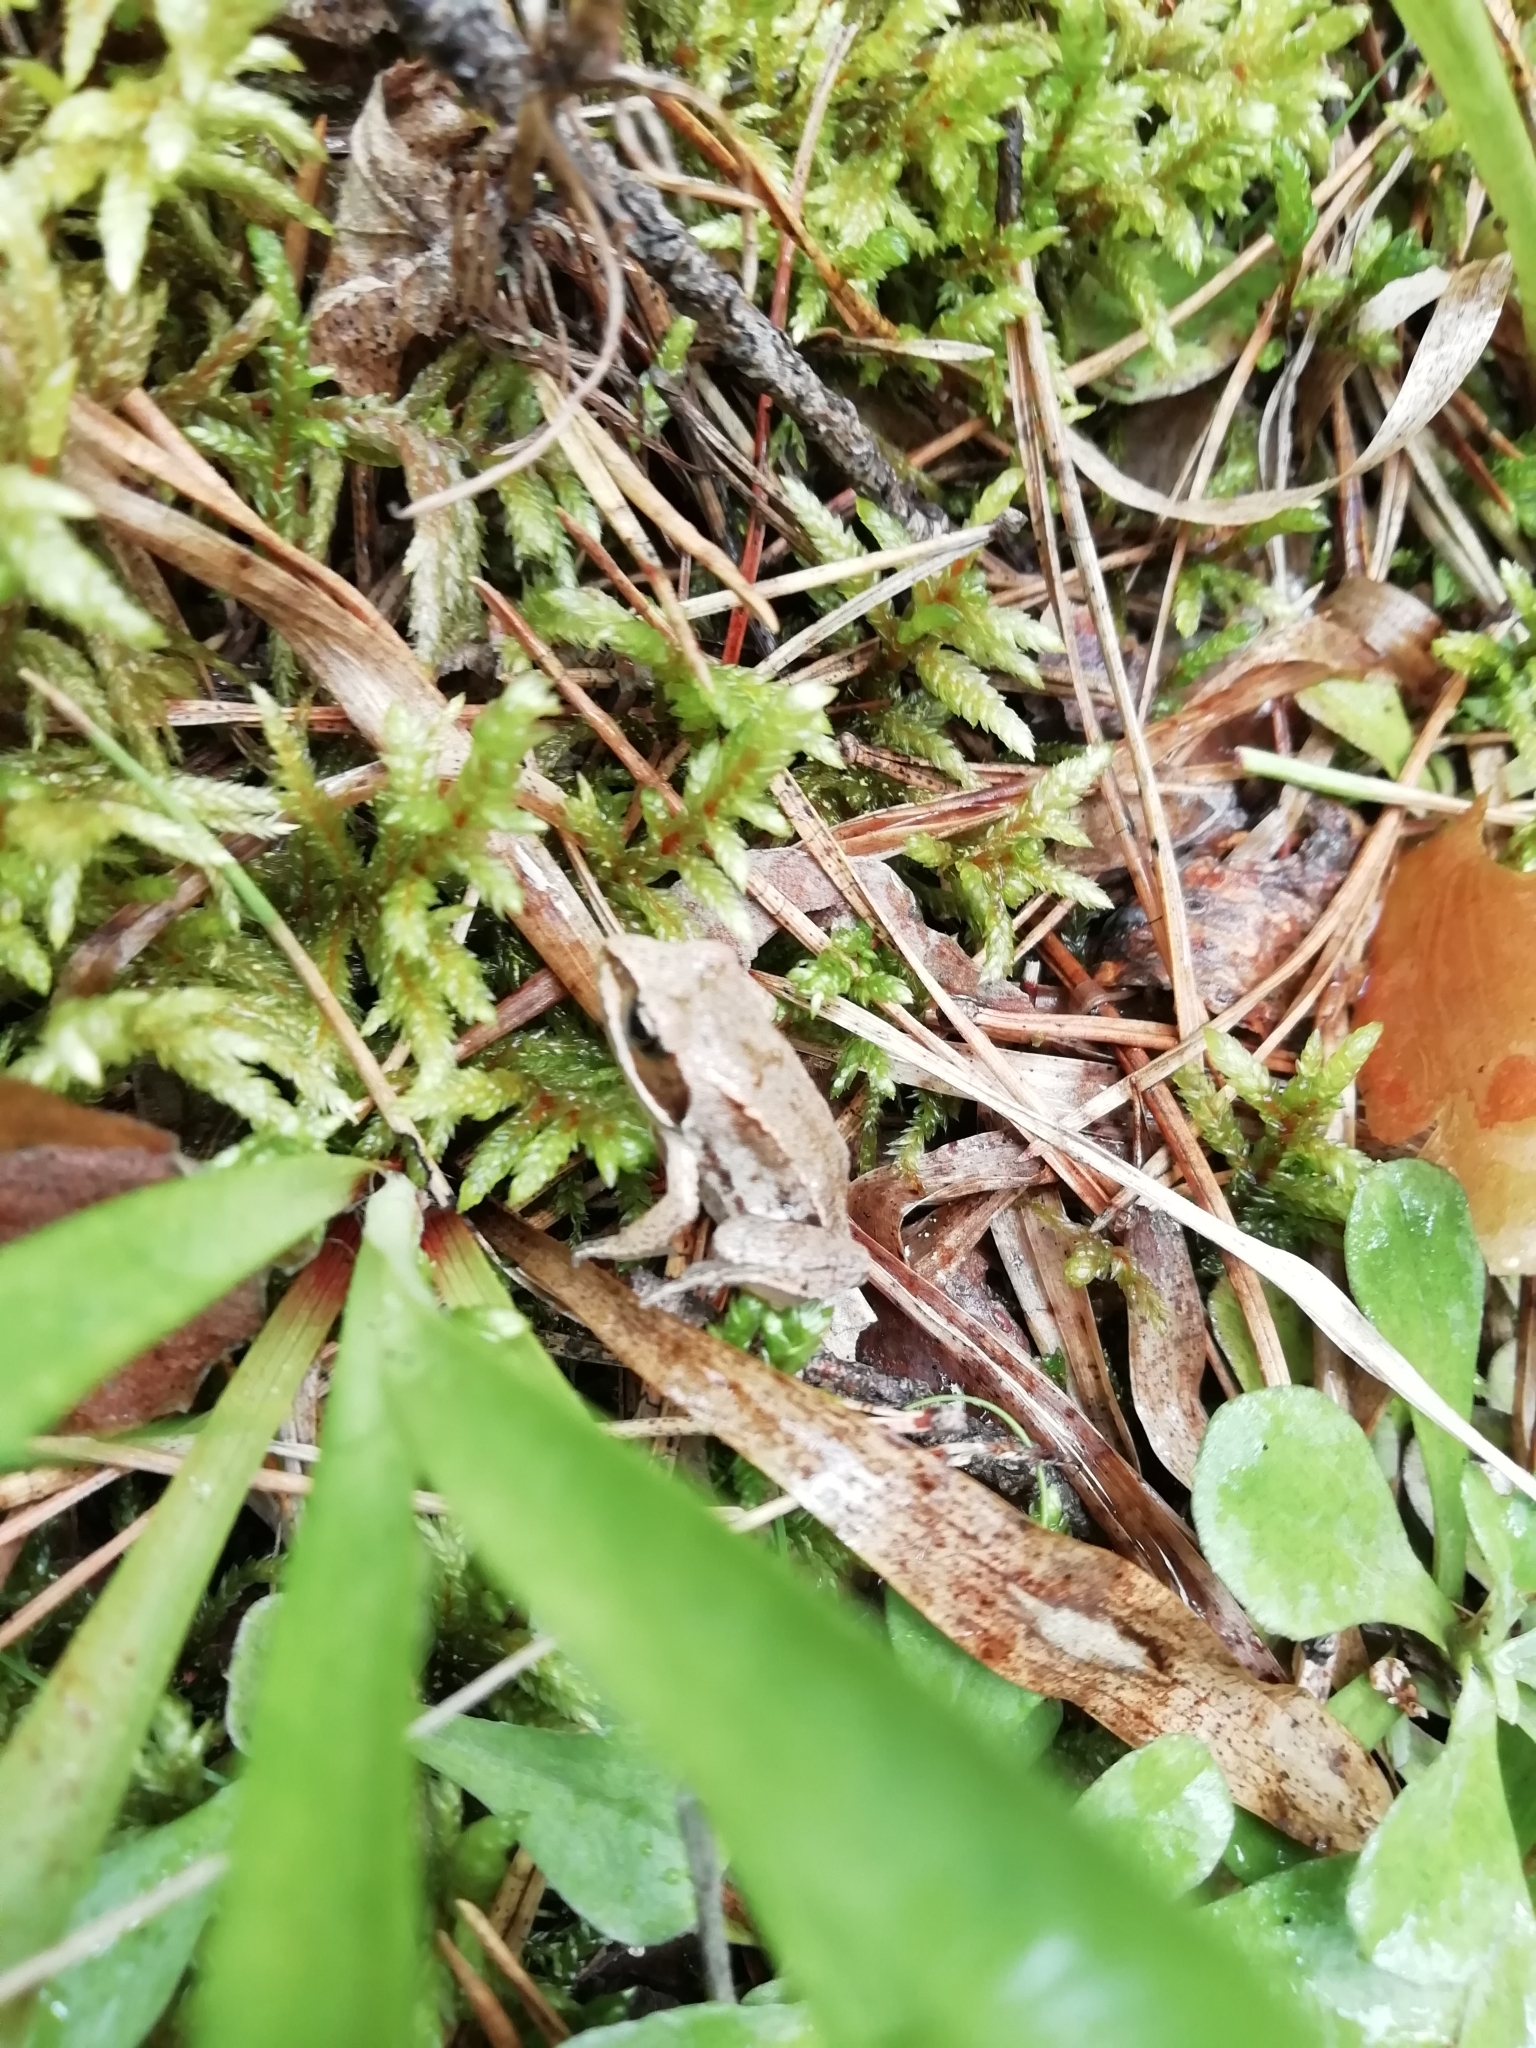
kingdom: Animalia
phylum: Chordata
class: Amphibia
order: Anura
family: Ranidae
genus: Rana
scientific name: Rana arvalis
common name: Moor frog
